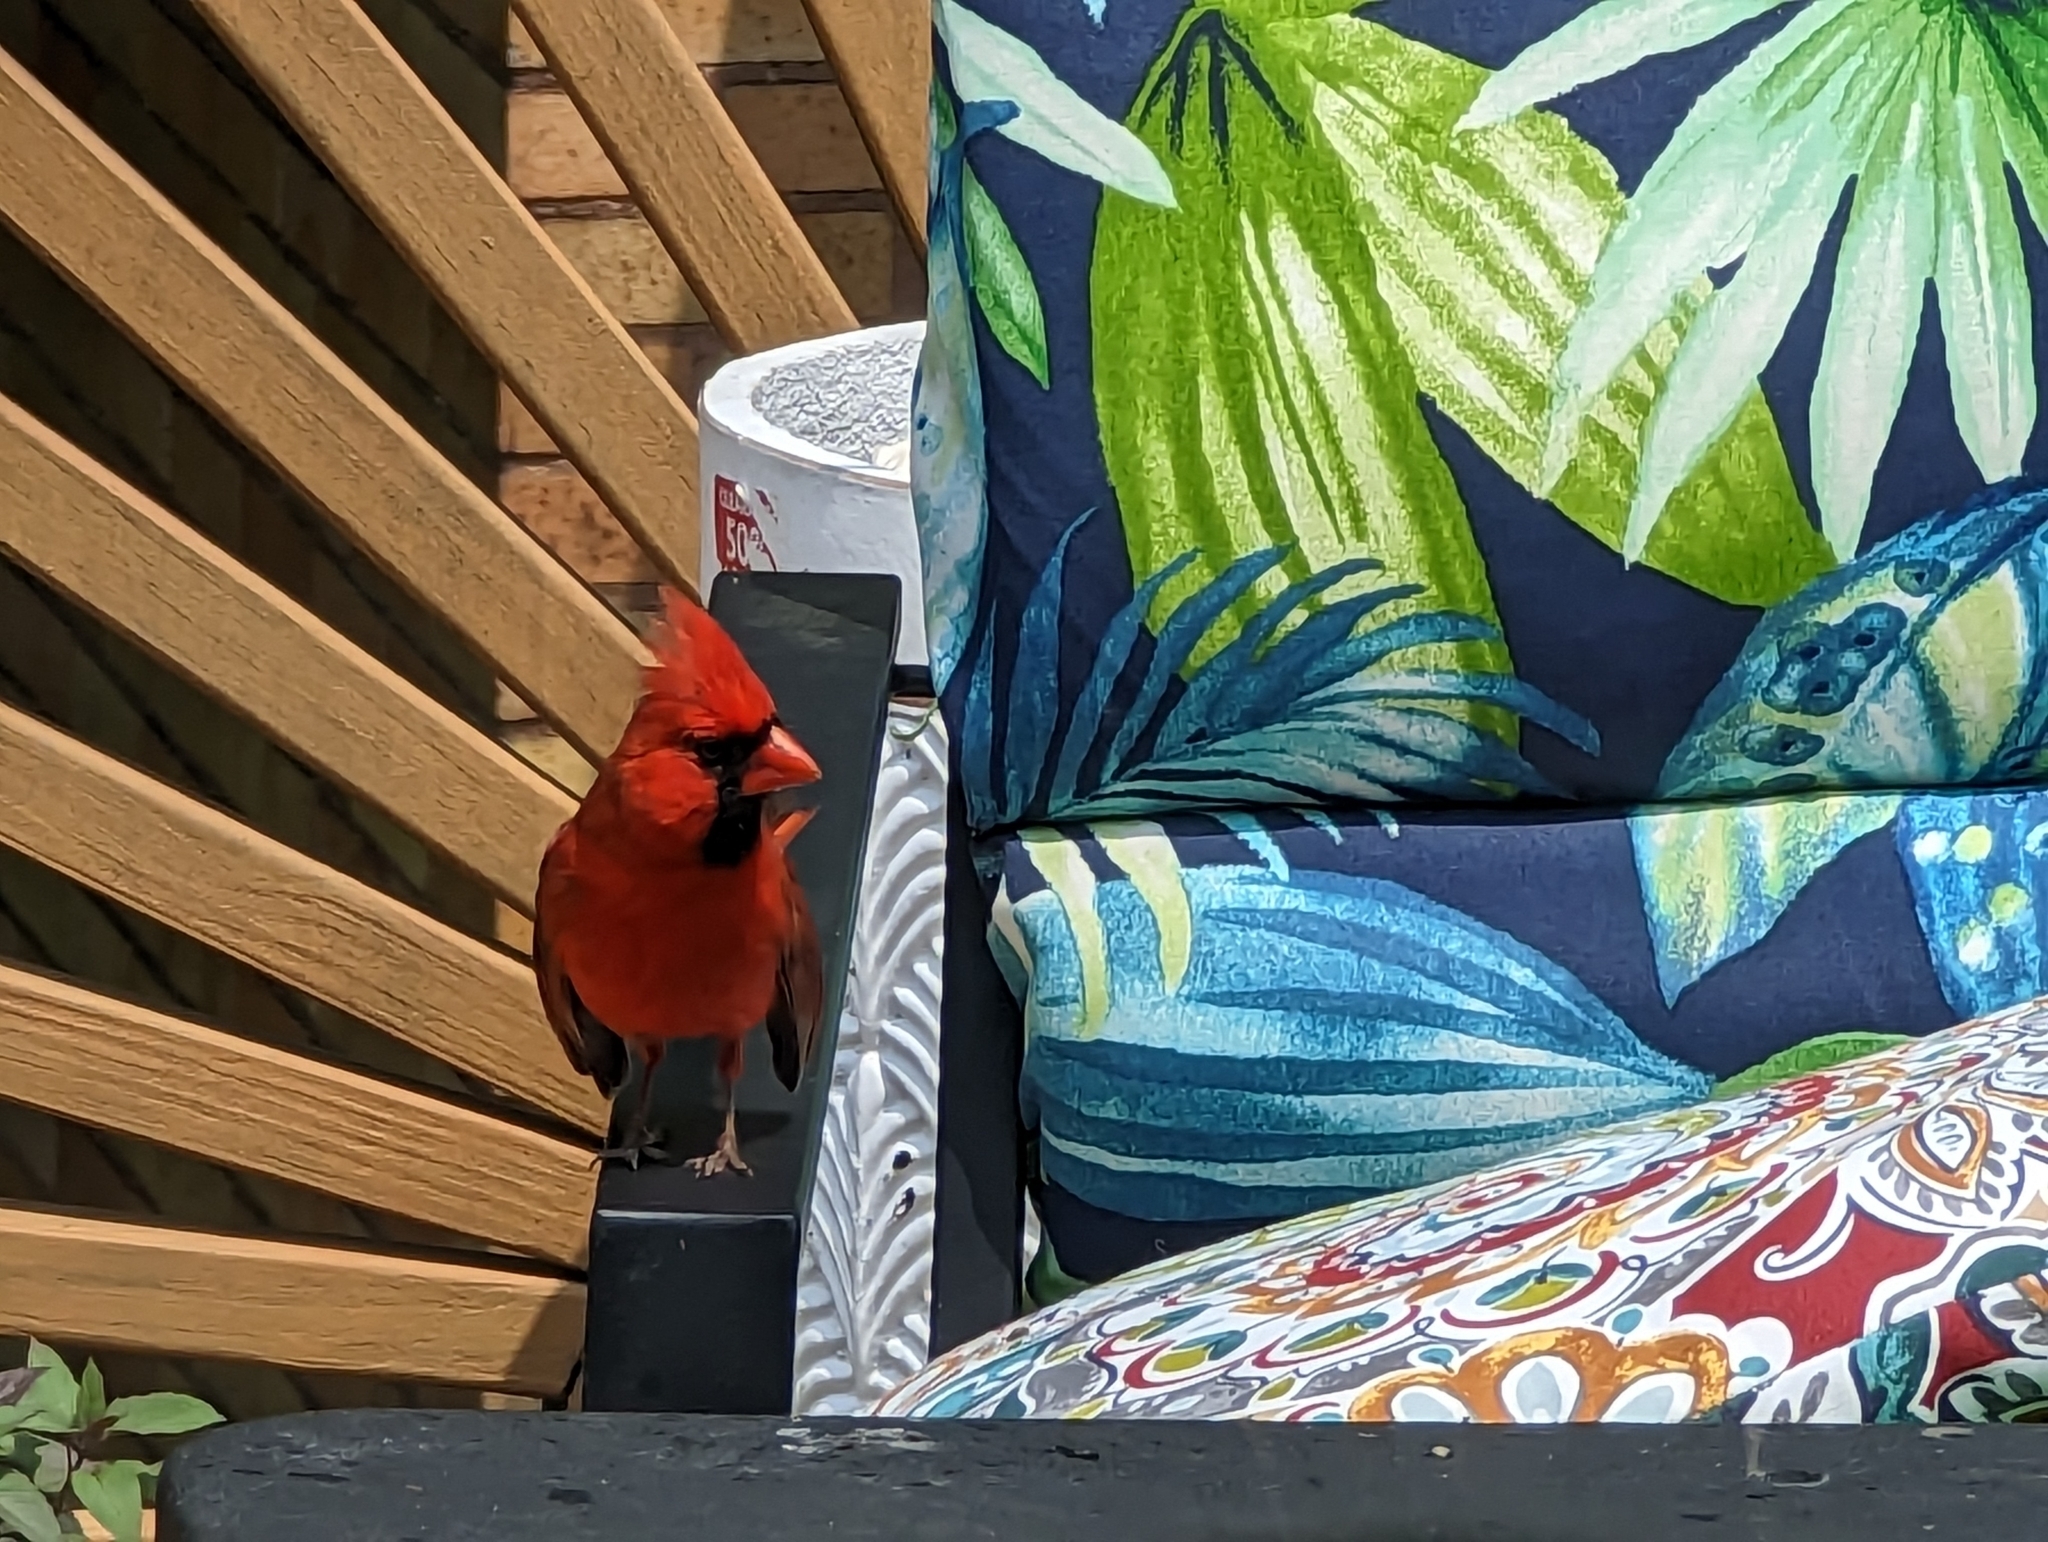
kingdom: Animalia
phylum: Chordata
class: Aves
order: Passeriformes
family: Cardinalidae
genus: Cardinalis
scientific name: Cardinalis cardinalis
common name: Northern cardinal
